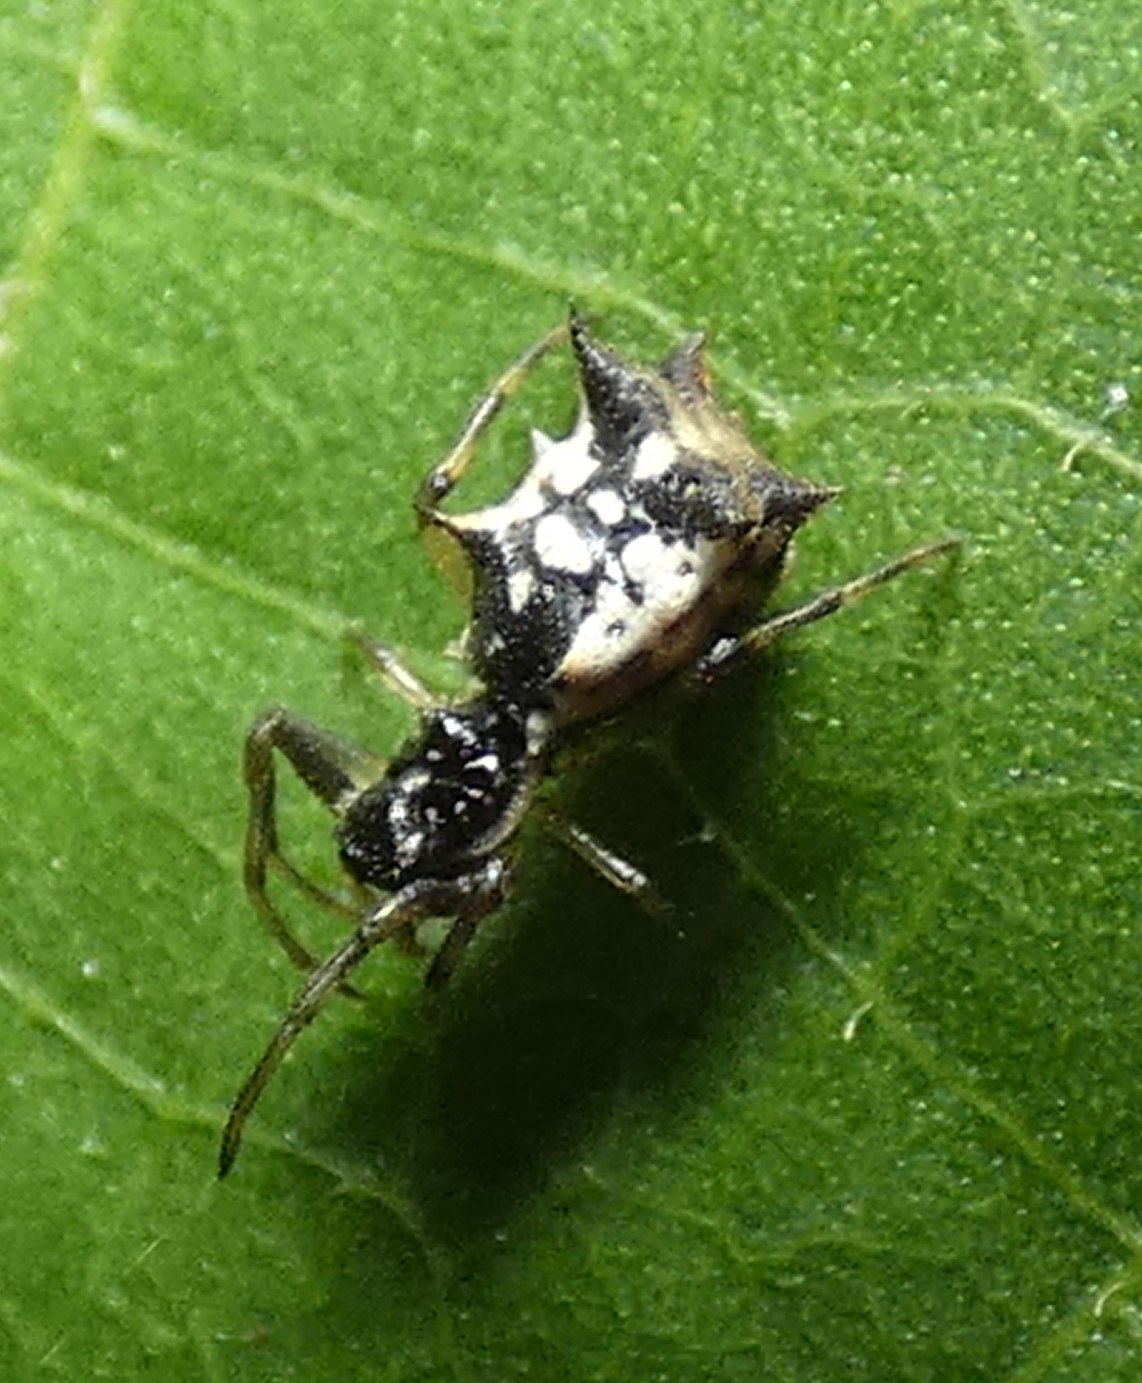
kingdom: Animalia
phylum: Arthropoda
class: Arachnida
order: Araneae
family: Araneidae
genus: Micrathena
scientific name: Micrathena picta
